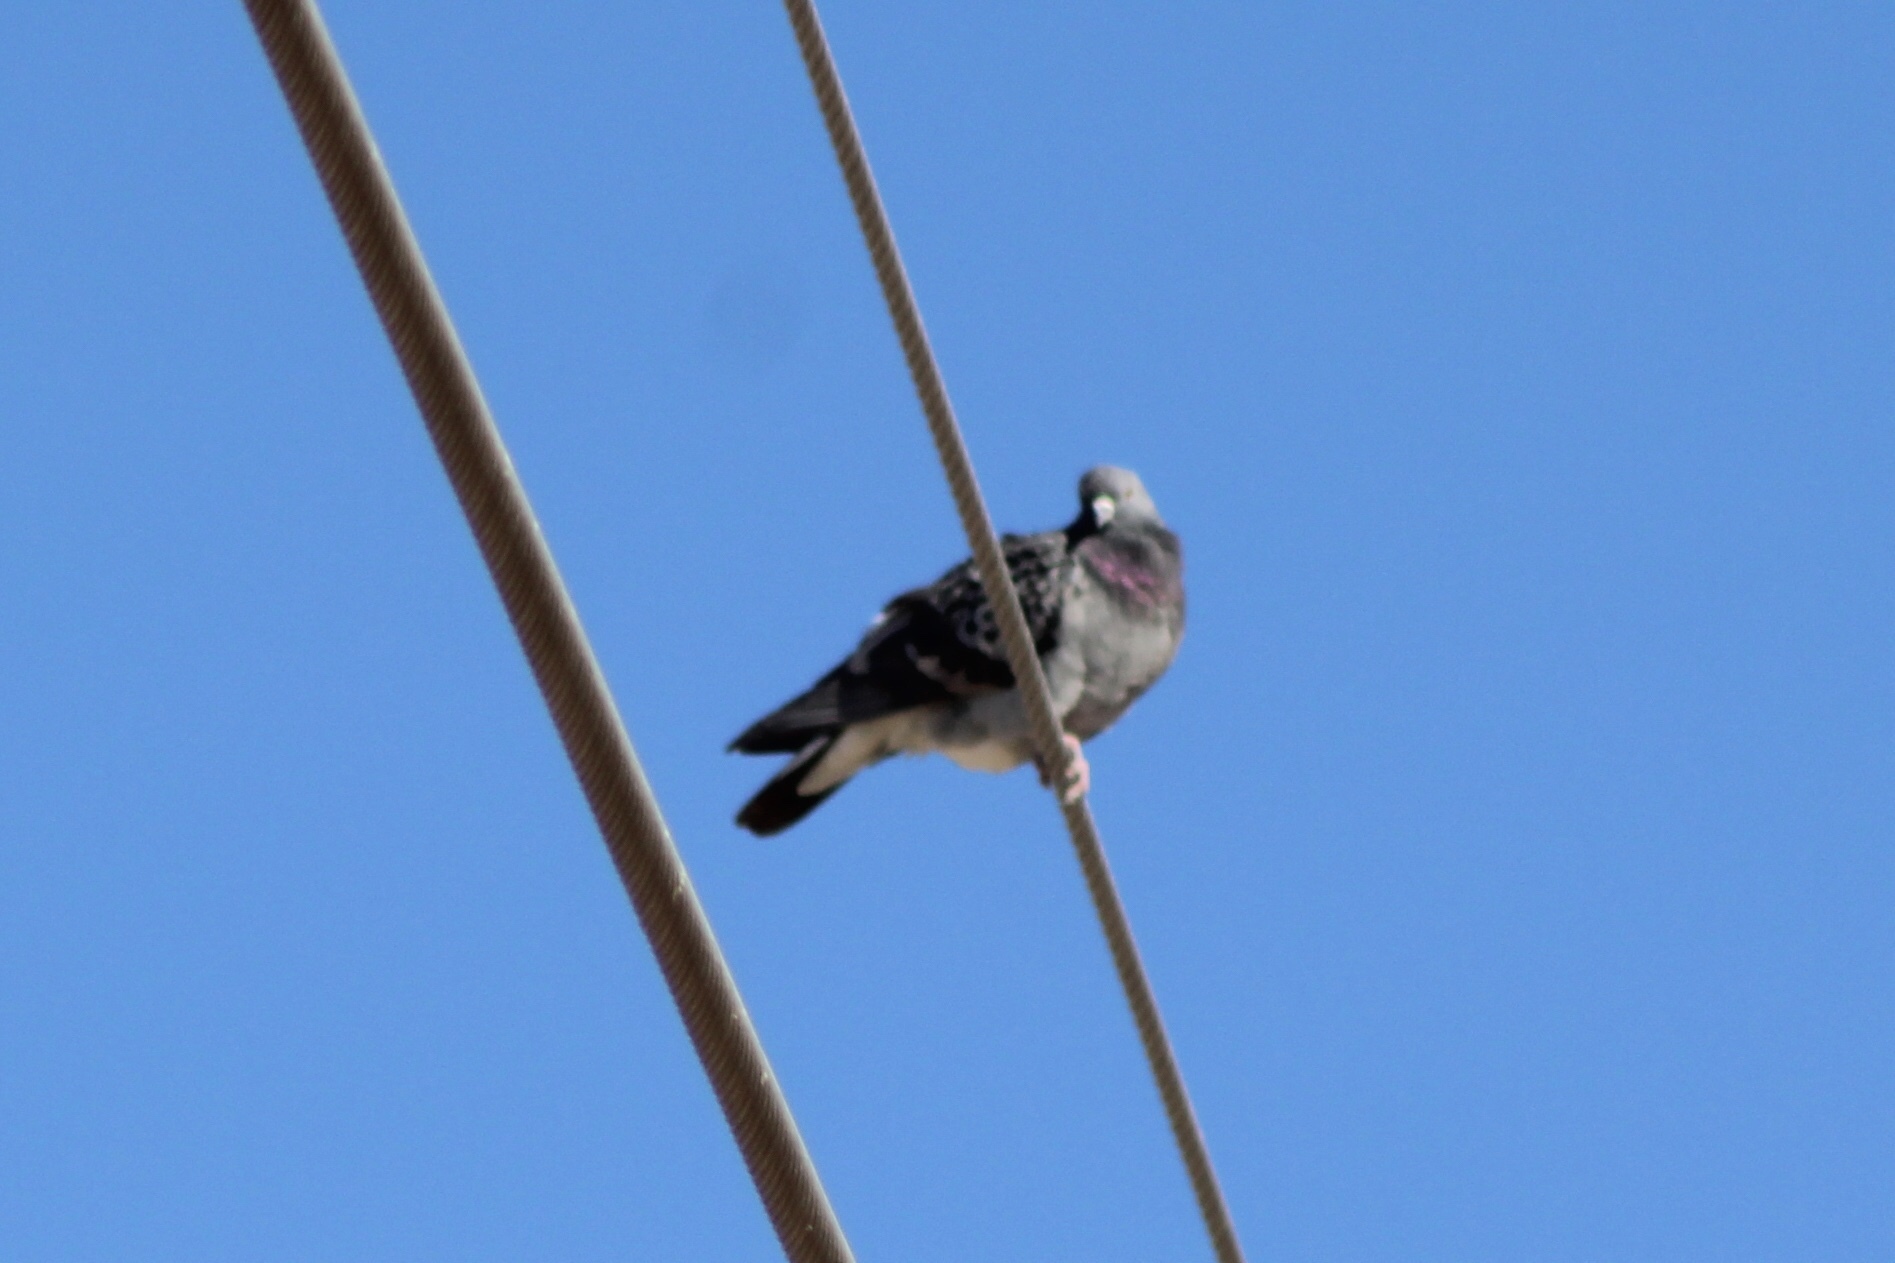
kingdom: Animalia
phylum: Chordata
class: Aves
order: Columbiformes
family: Columbidae
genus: Columba
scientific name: Columba livia
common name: Rock pigeon
